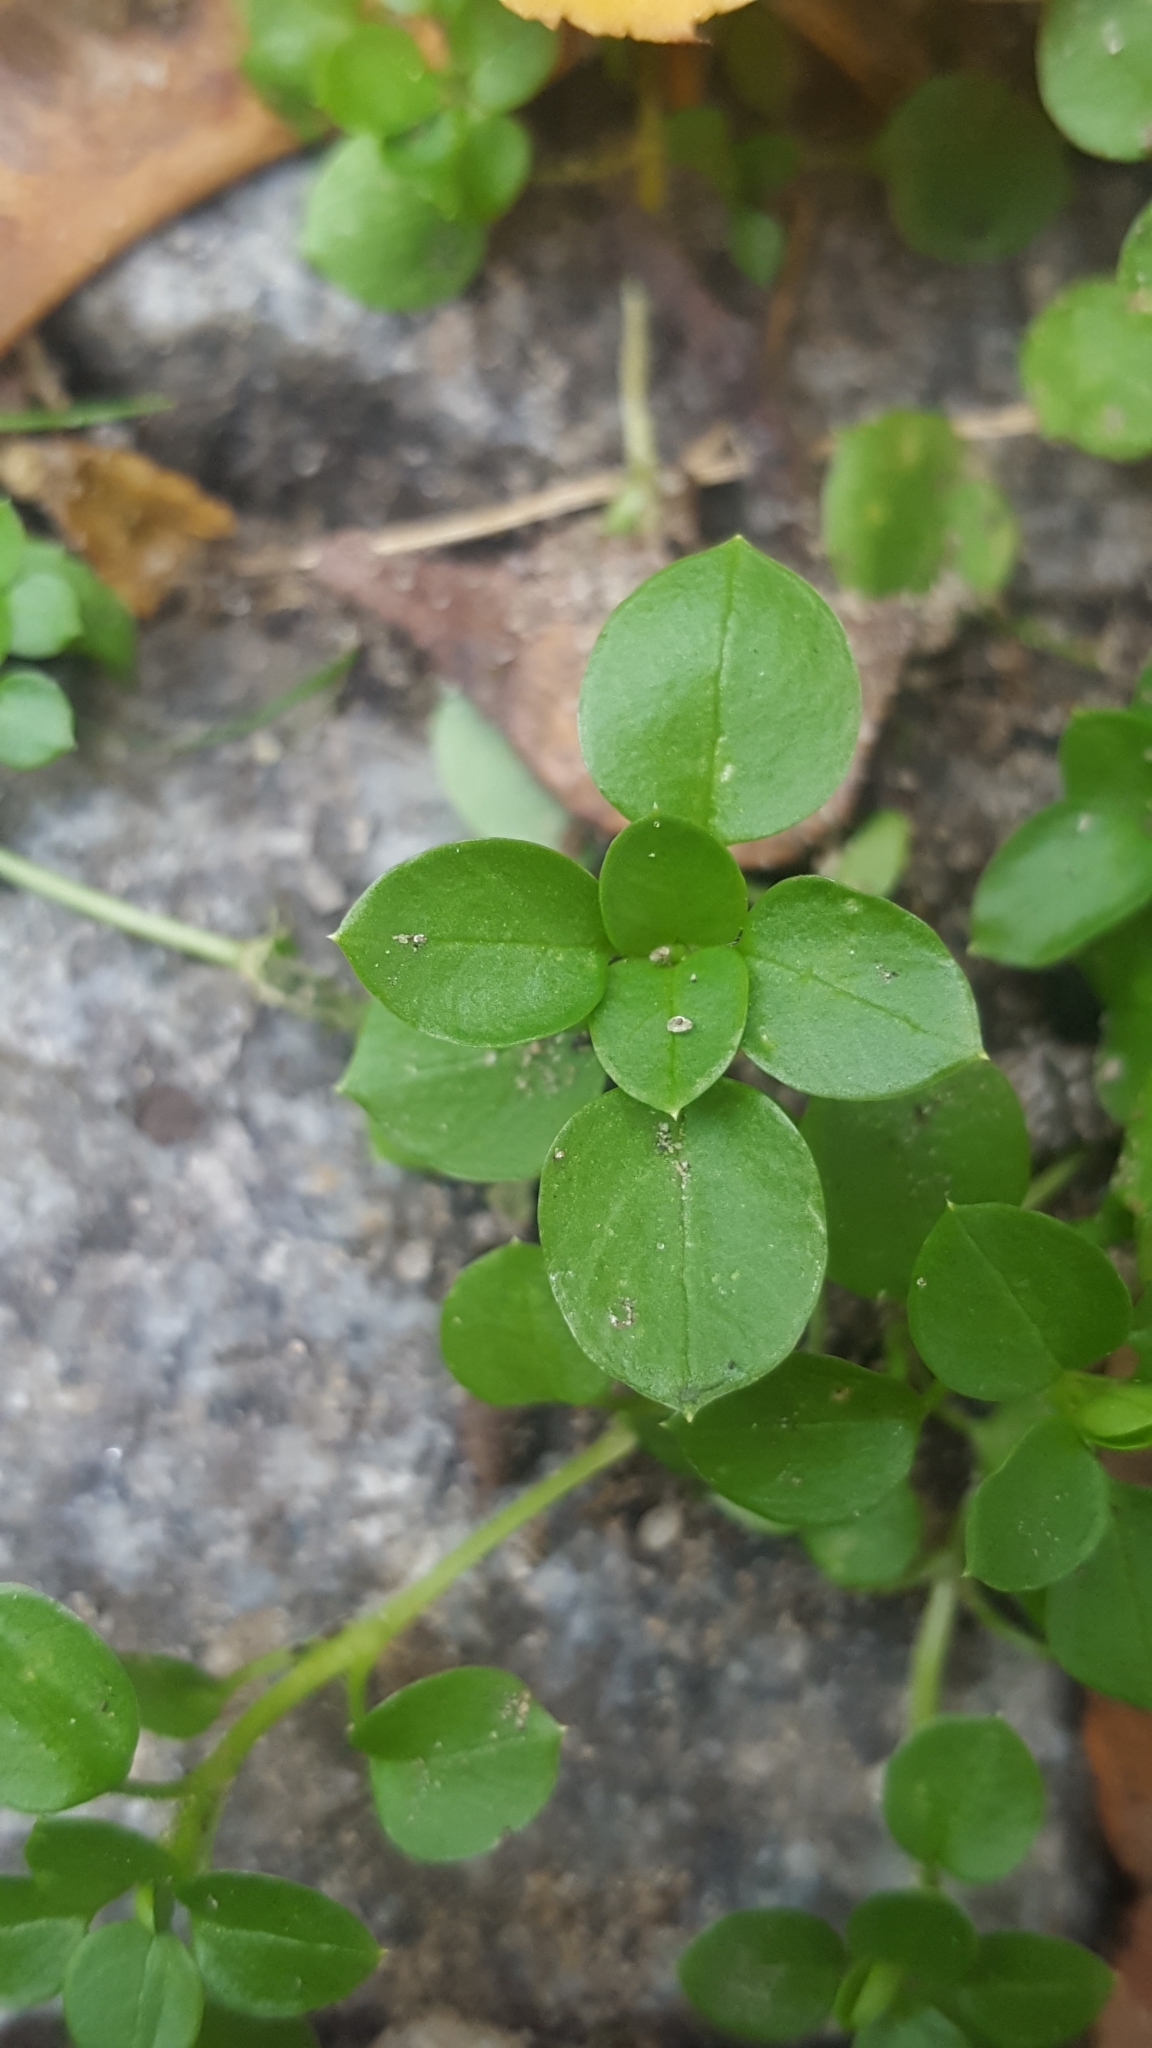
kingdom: Plantae
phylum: Tracheophyta
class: Magnoliopsida
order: Caryophyllales
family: Caryophyllaceae
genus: Stellaria
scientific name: Stellaria media
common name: Common chickweed
